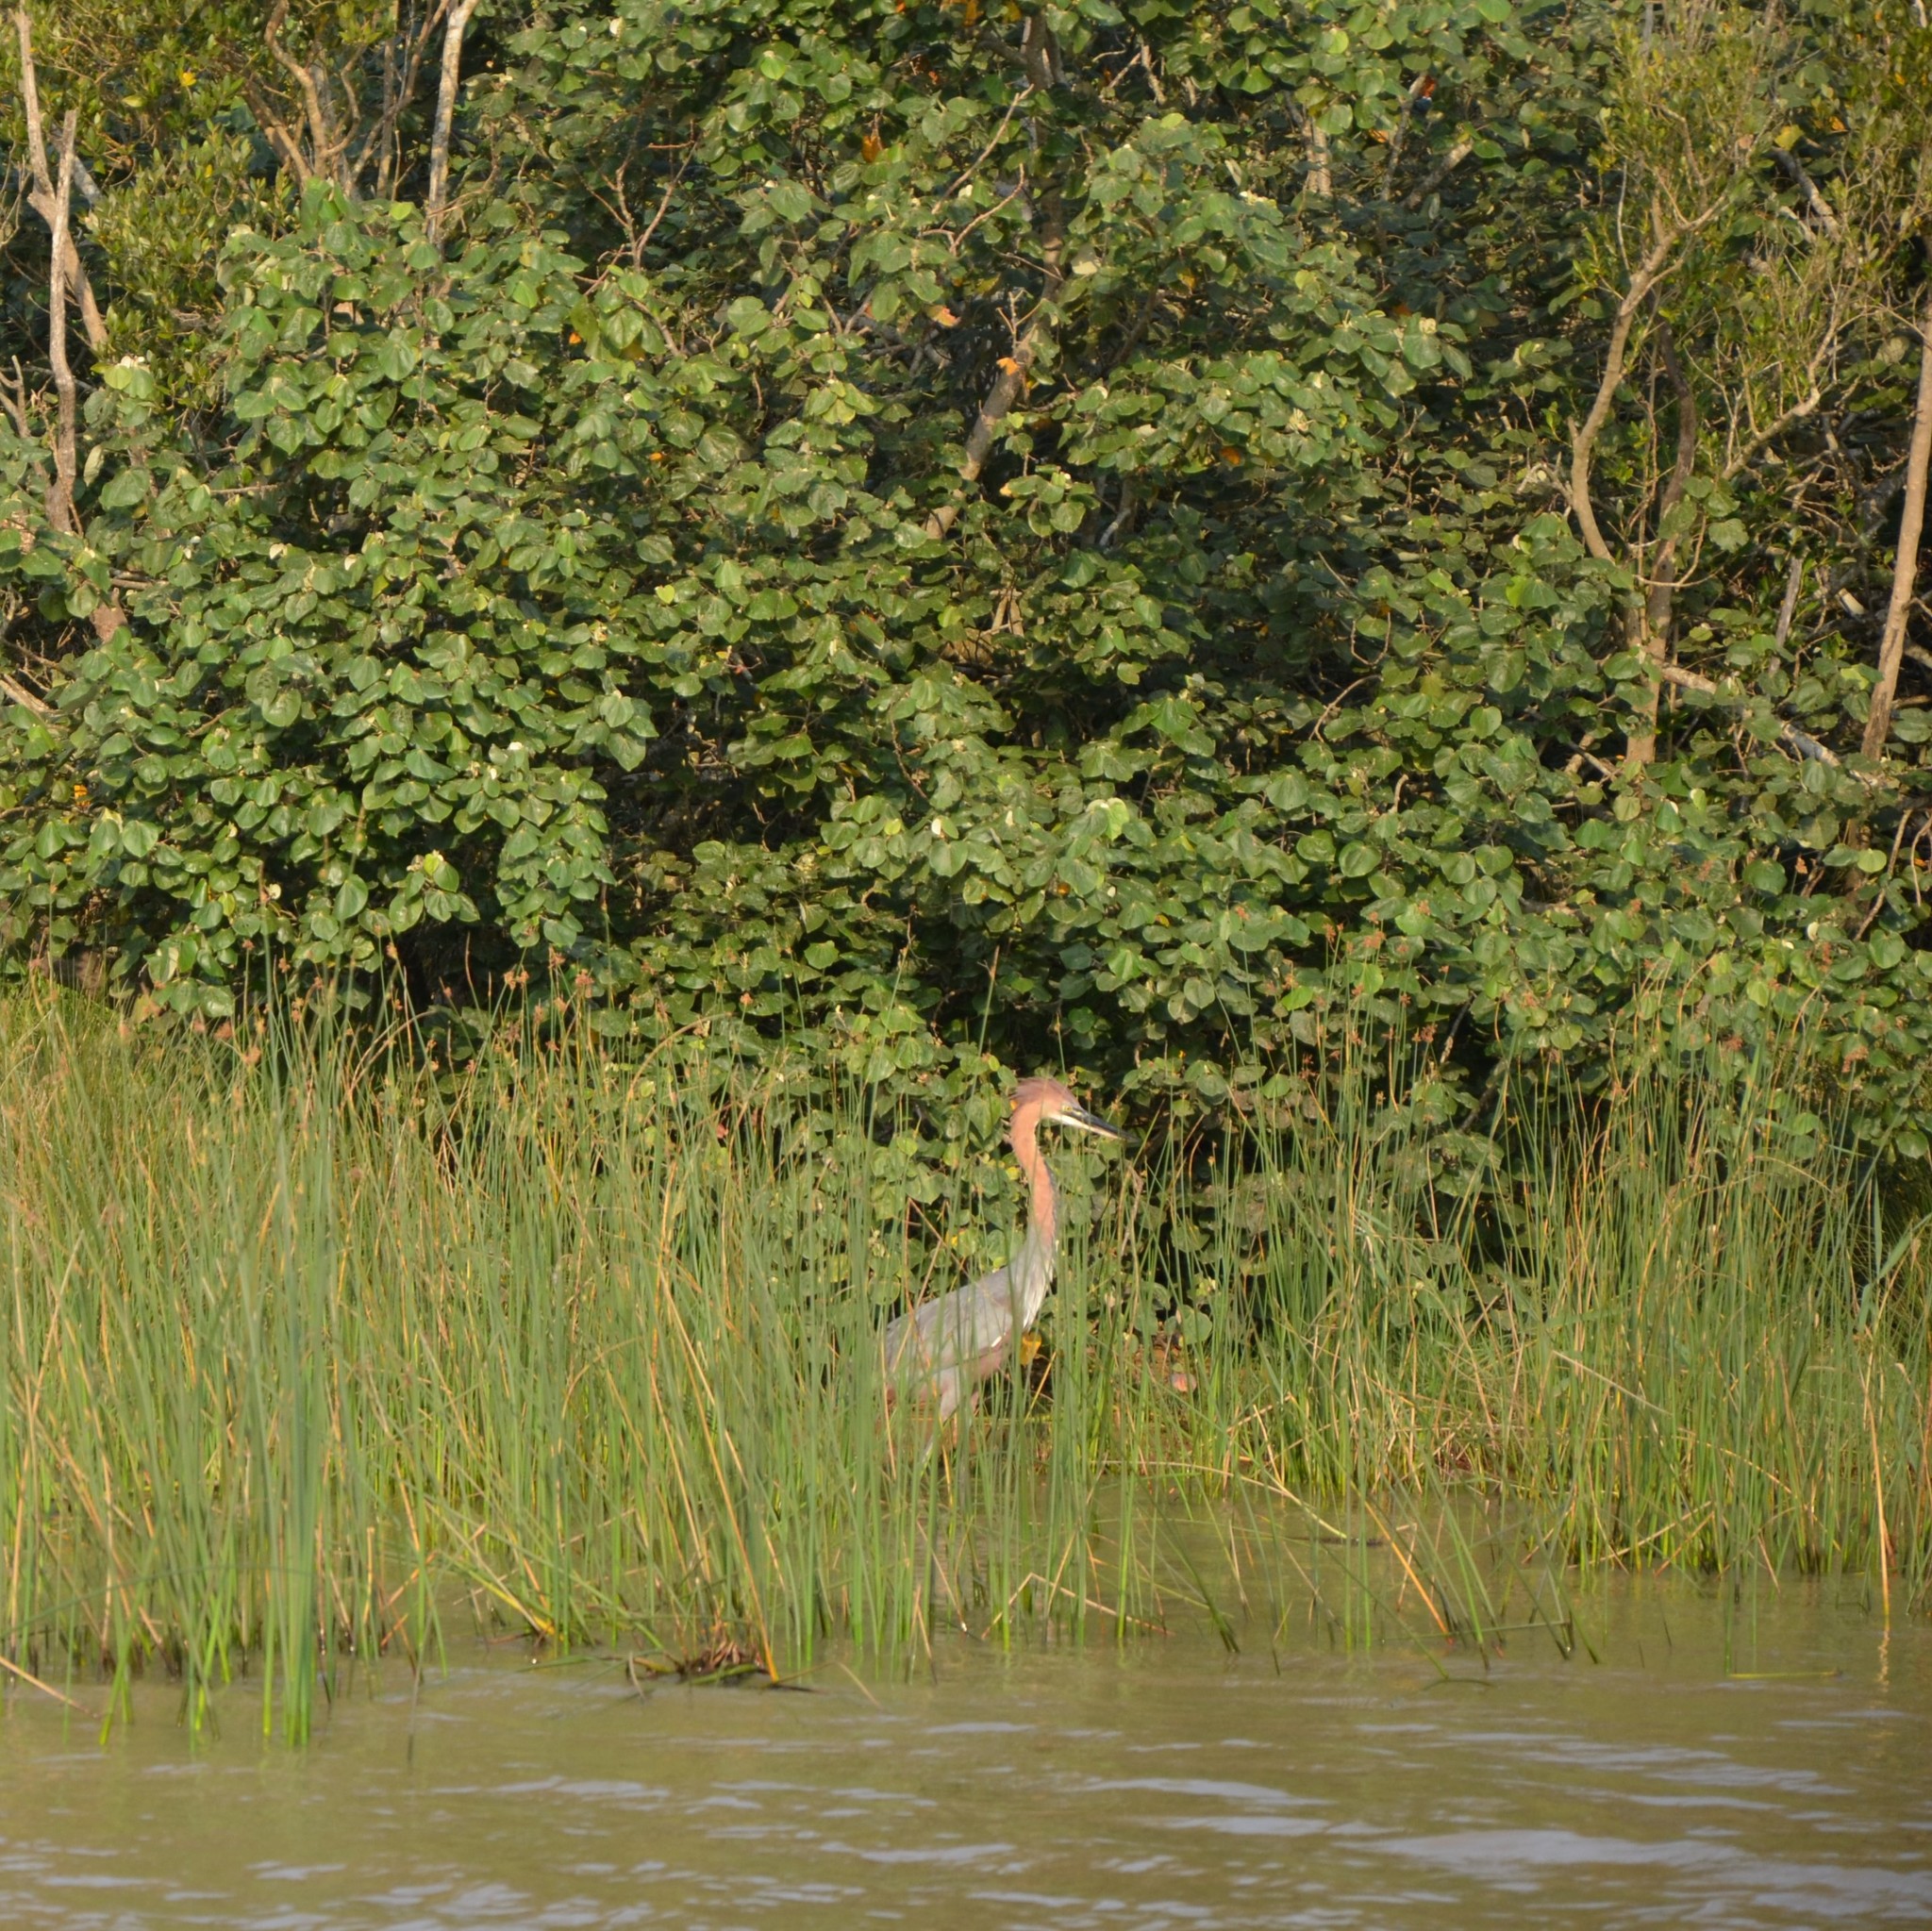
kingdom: Animalia
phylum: Chordata
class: Aves
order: Pelecaniformes
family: Ardeidae
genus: Ardea
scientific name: Ardea goliath
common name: Goliath heron
